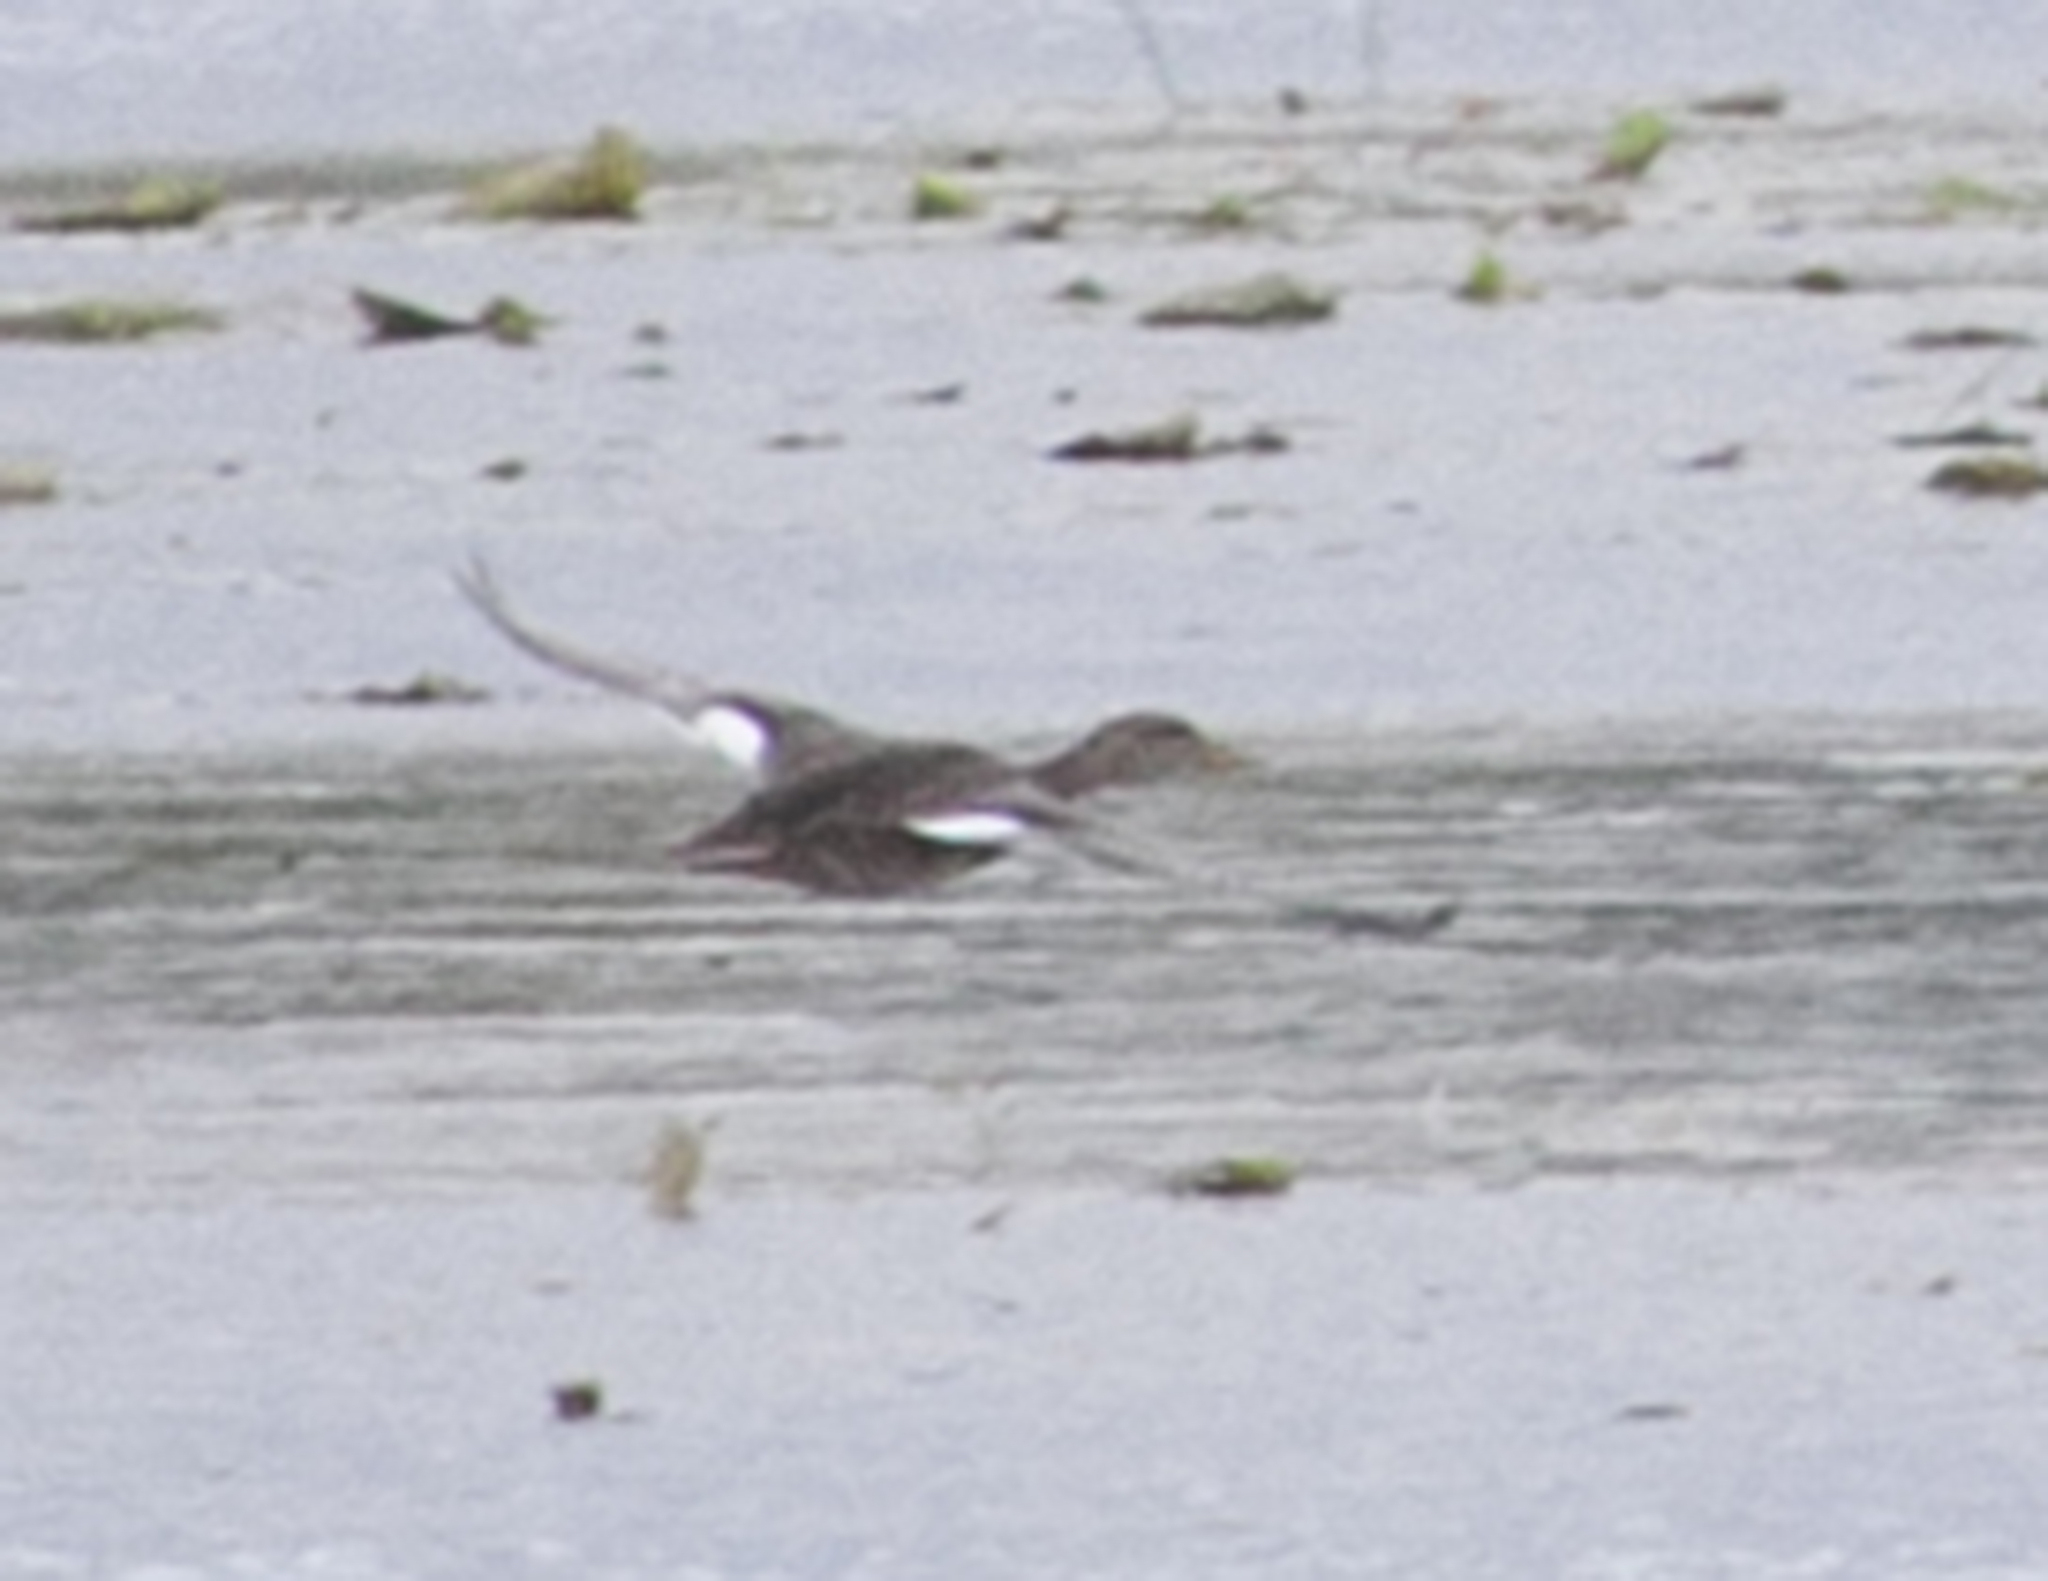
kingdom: Animalia
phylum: Chordata
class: Aves
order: Anseriformes
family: Anatidae
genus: Mareca
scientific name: Mareca strepera
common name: Gadwall
